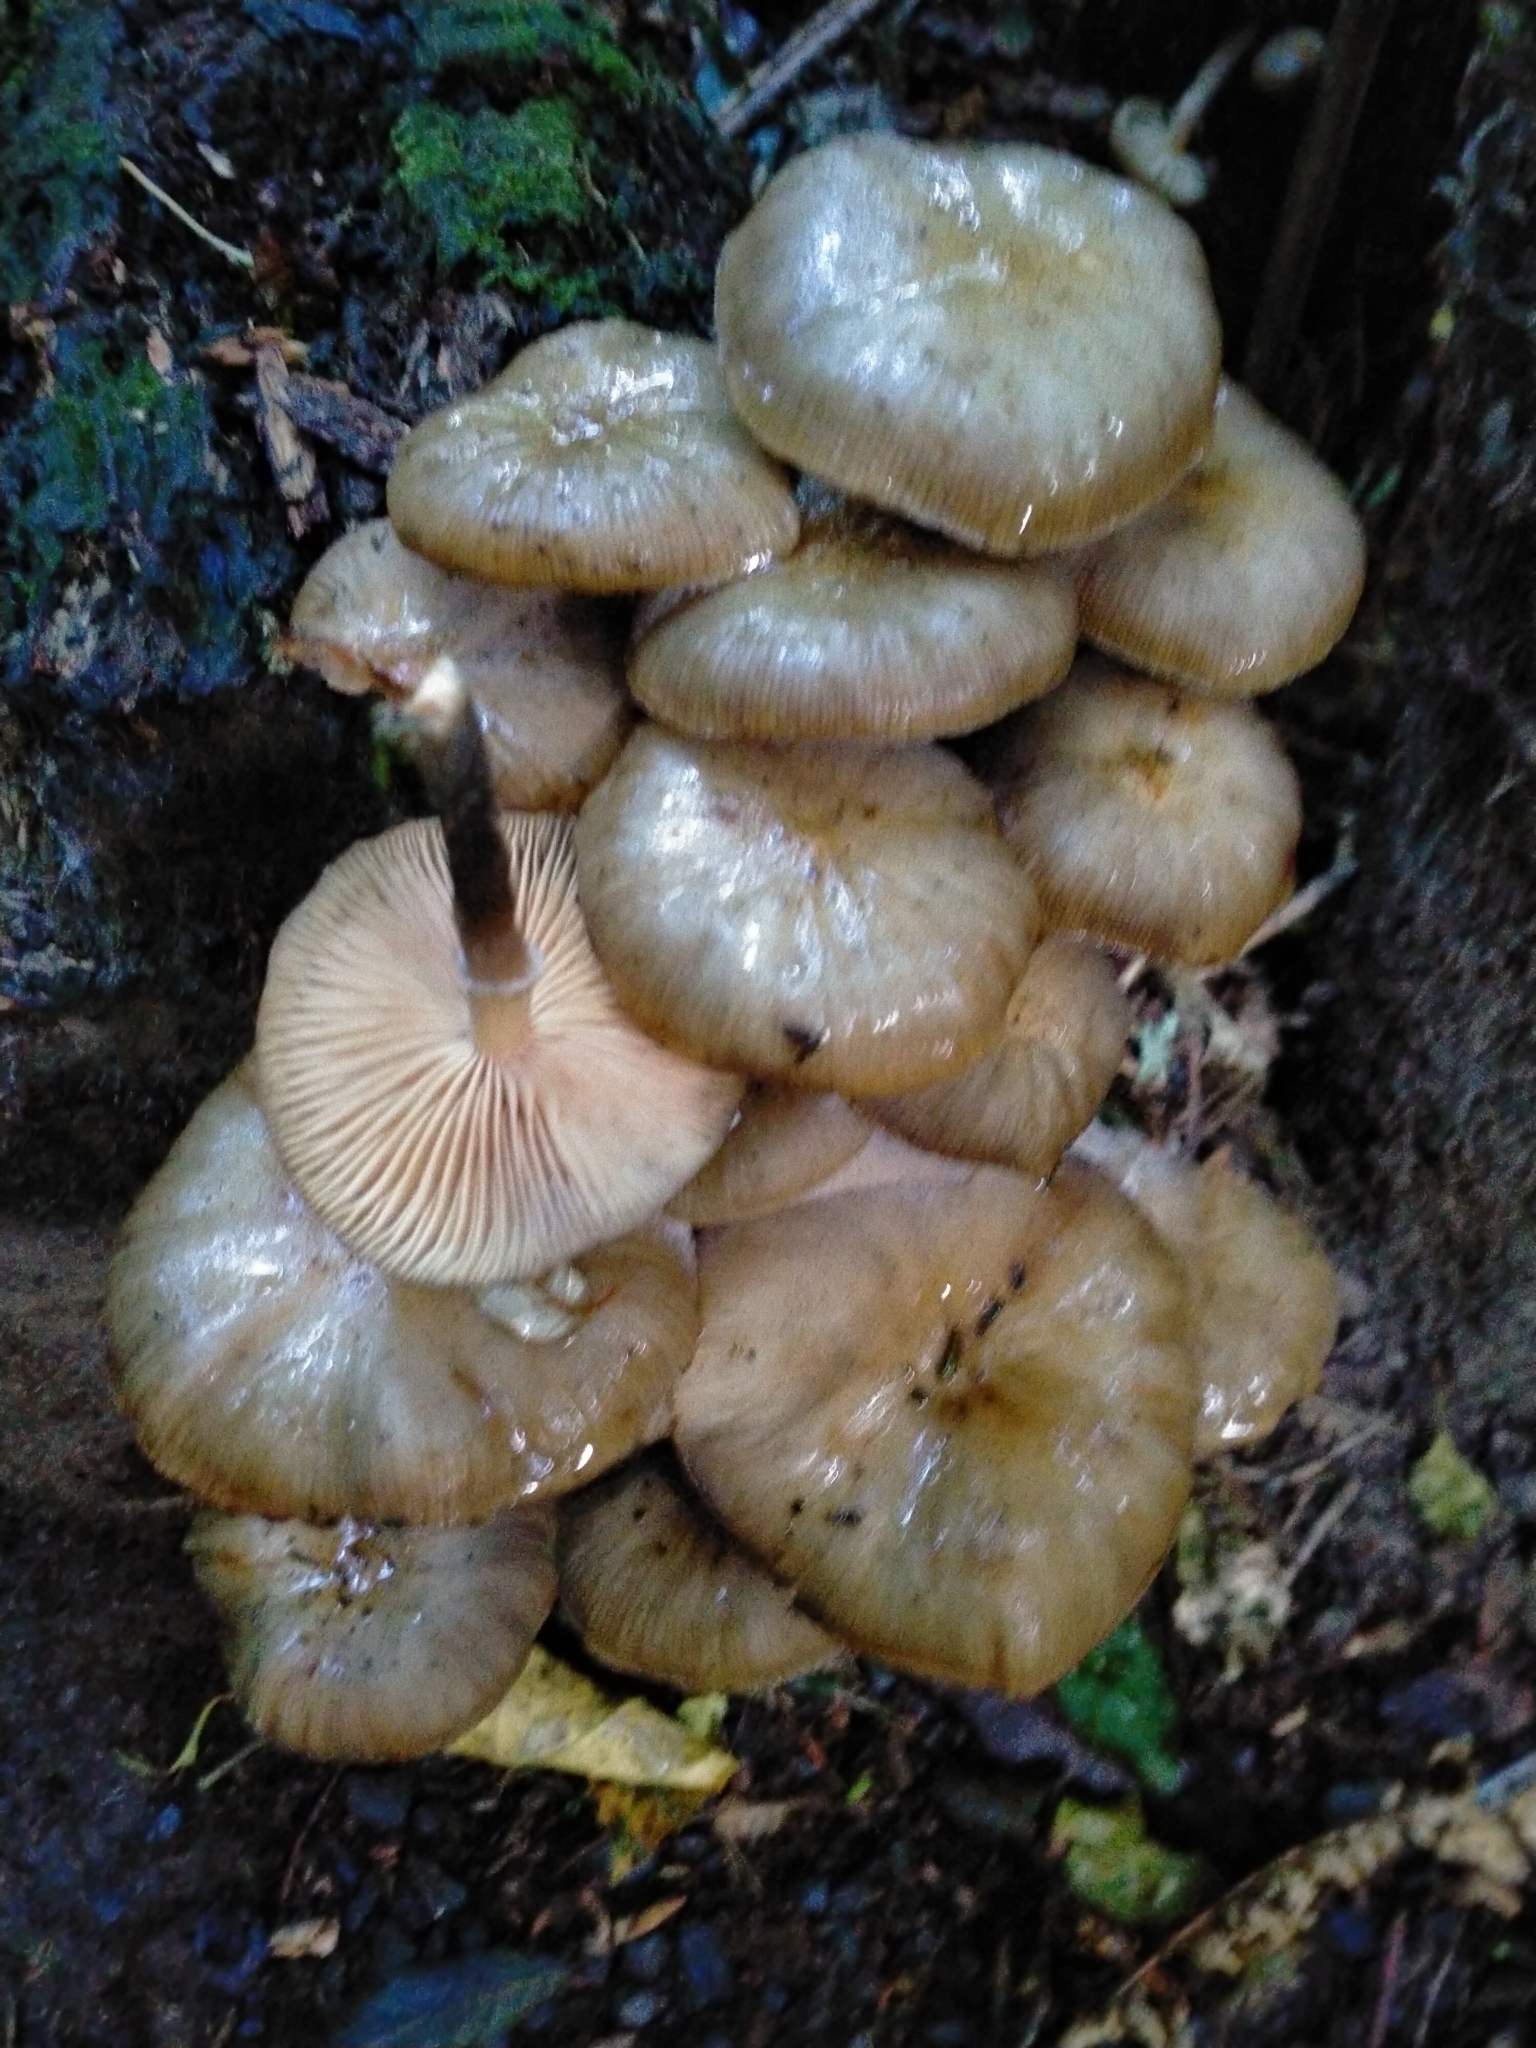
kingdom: Fungi
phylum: Basidiomycota
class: Agaricomycetes
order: Agaricales
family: Physalacriaceae
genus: Armillaria
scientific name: Armillaria novae-zelandiae
